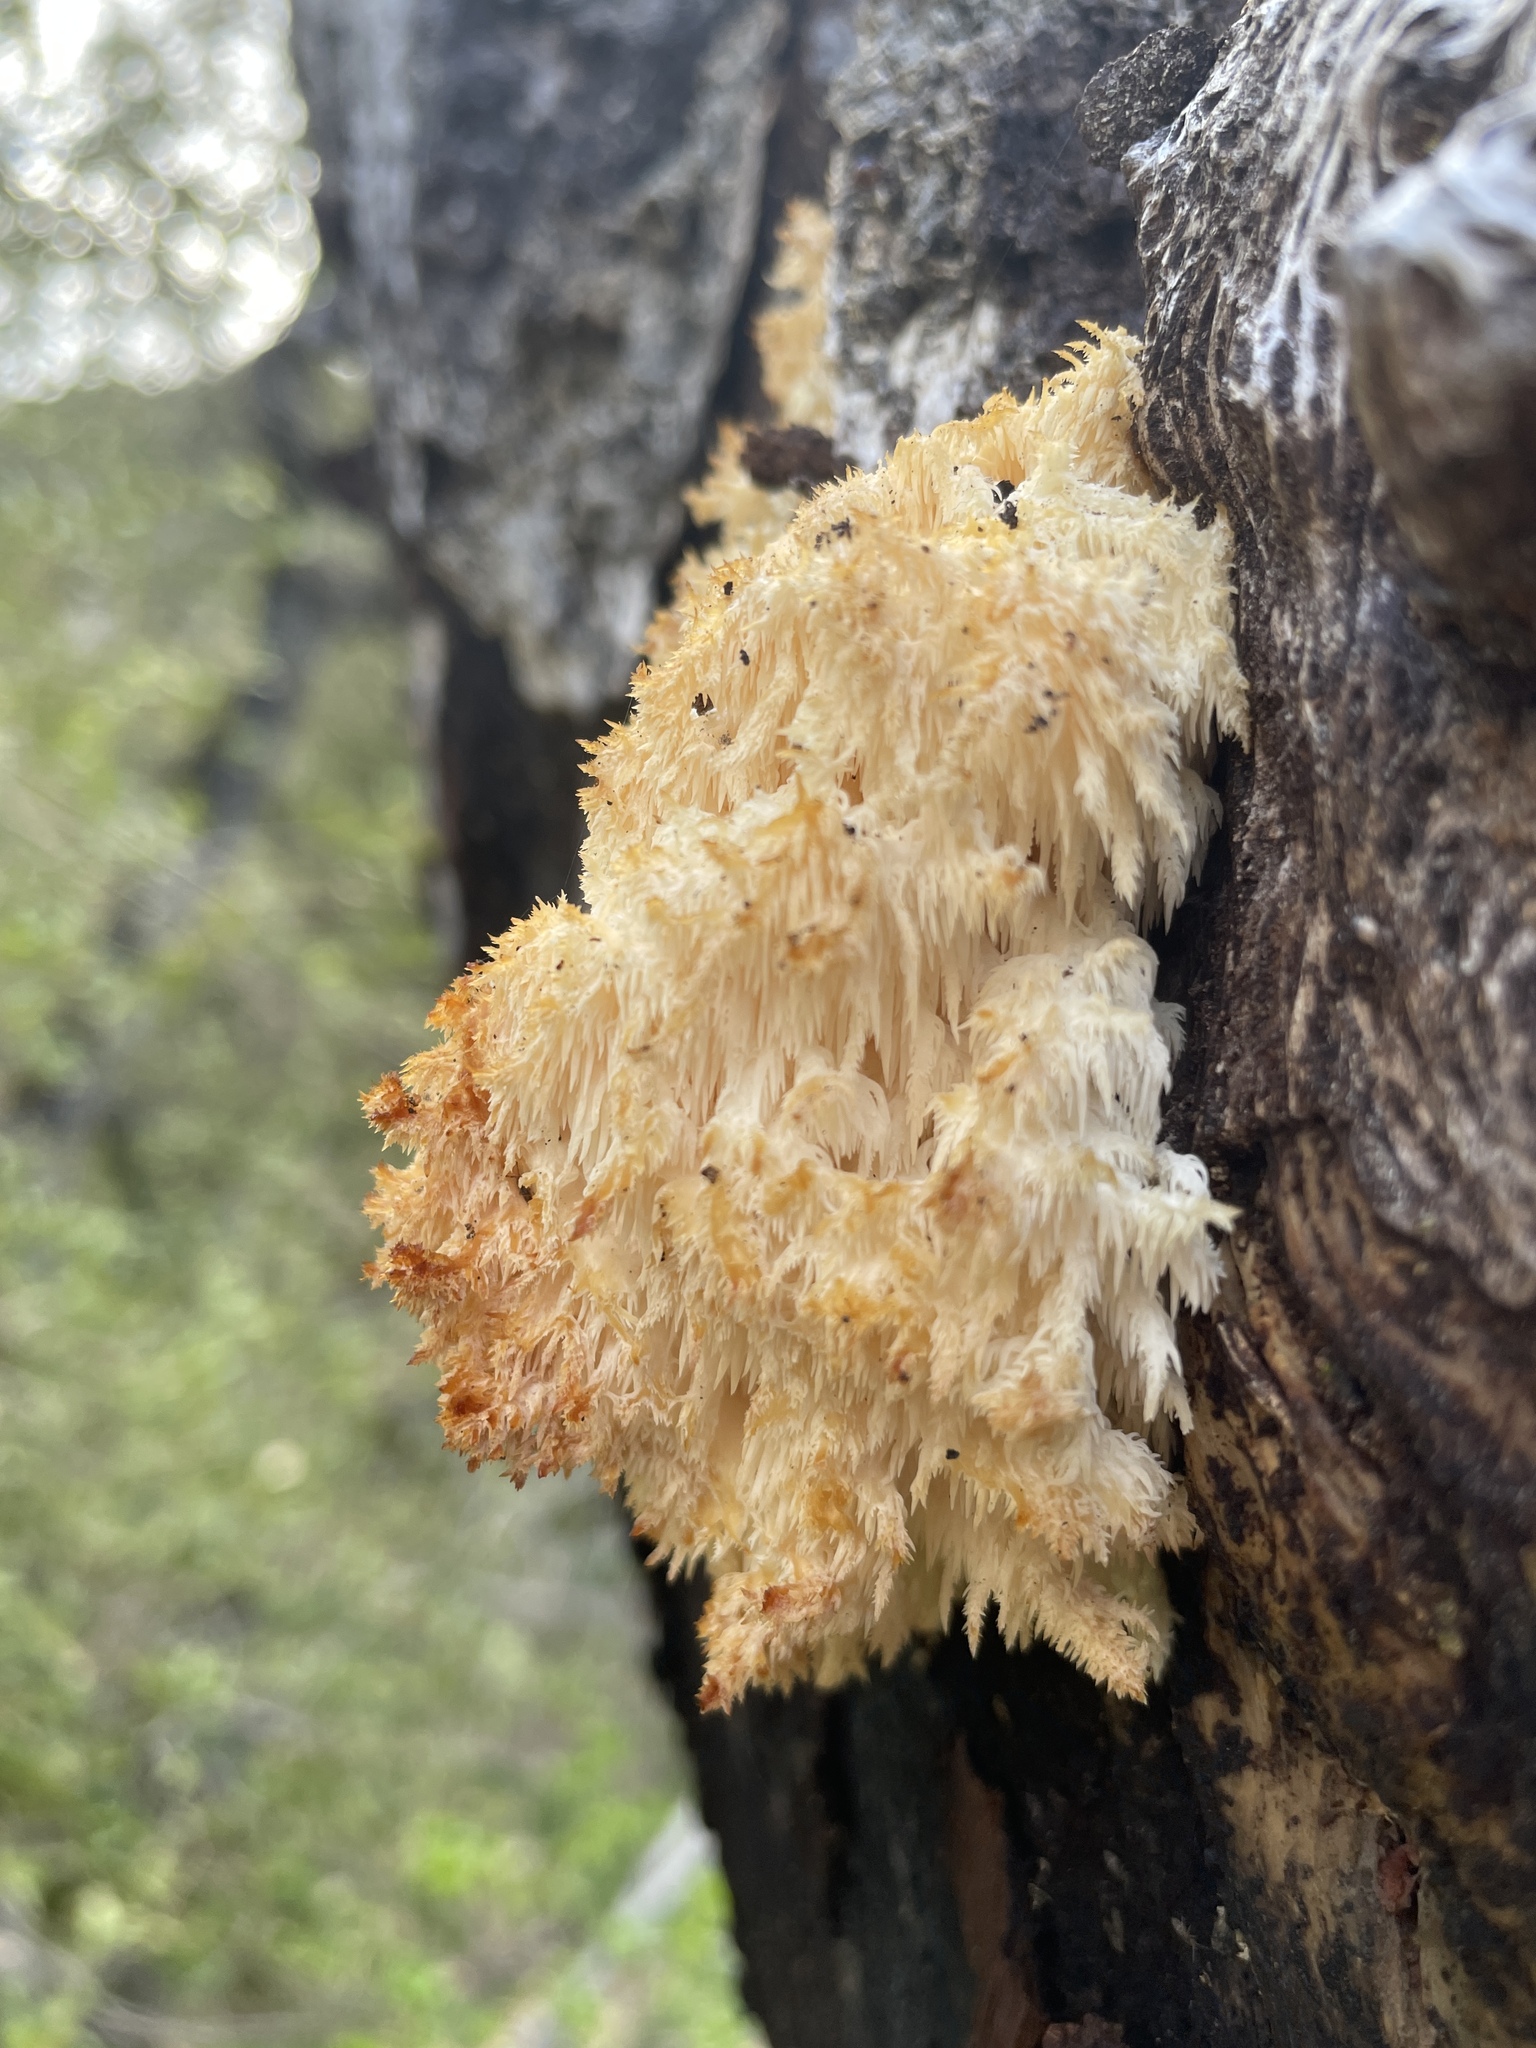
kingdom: Fungi
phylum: Basidiomycota
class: Agaricomycetes
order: Russulales
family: Hericiaceae
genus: Hericium
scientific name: Hericium coralloides
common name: Coral tooth
